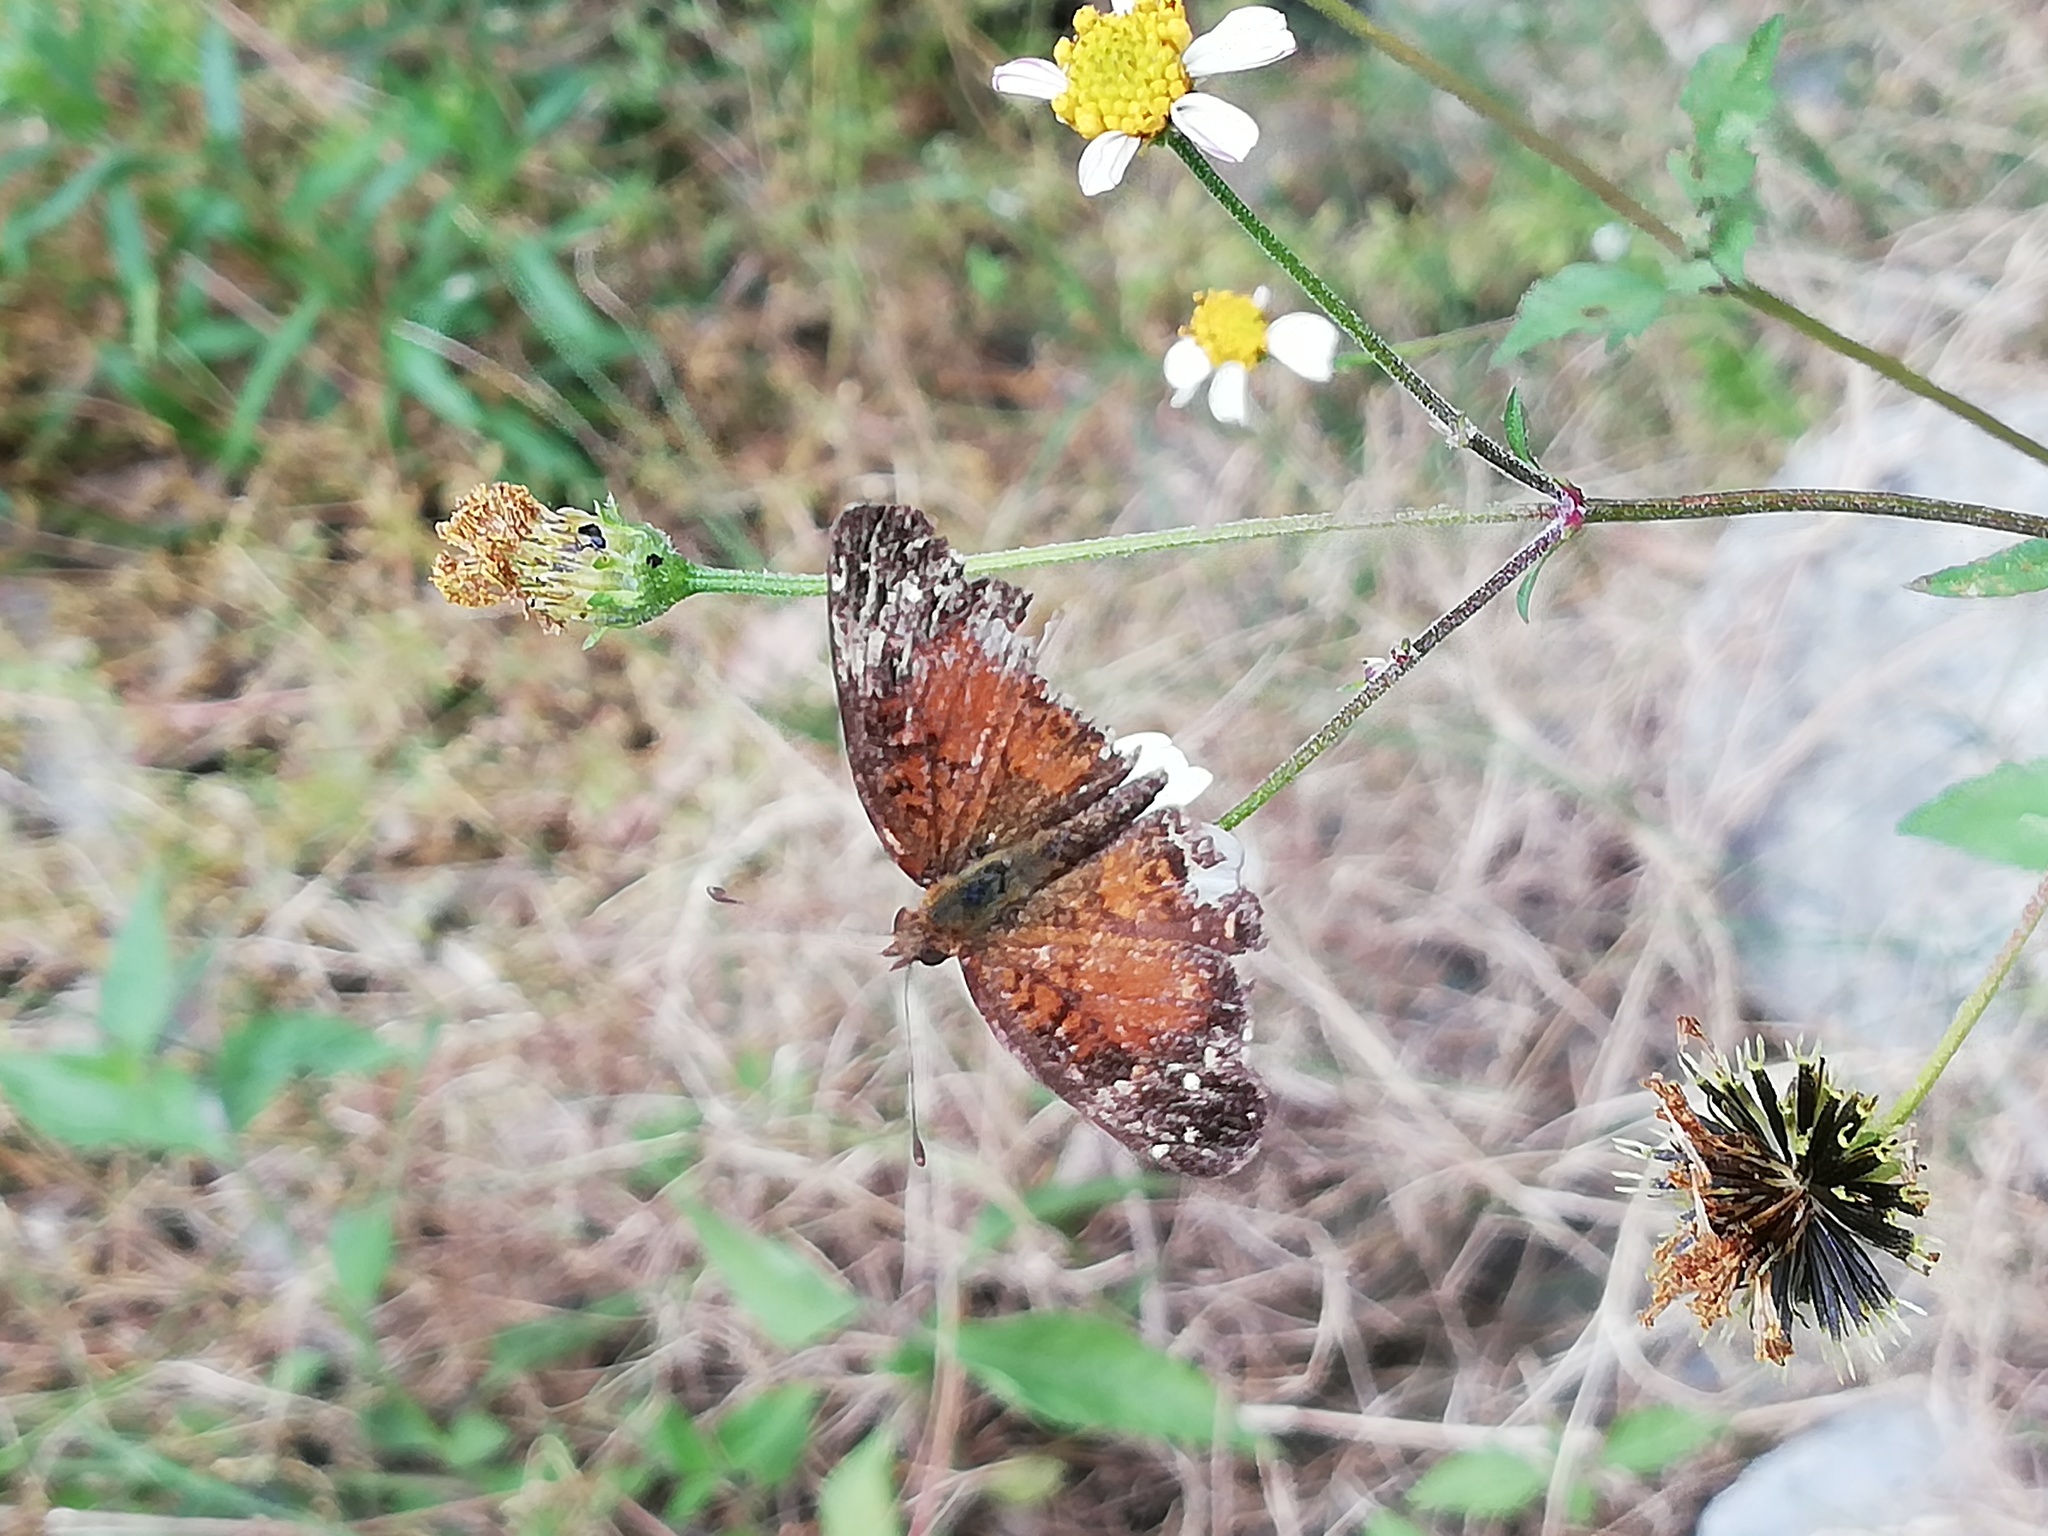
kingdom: Animalia
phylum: Arthropoda
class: Insecta
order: Lepidoptera
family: Nymphalidae
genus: Anthanassa
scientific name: Anthanassa argentea
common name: Chestnut crescent
